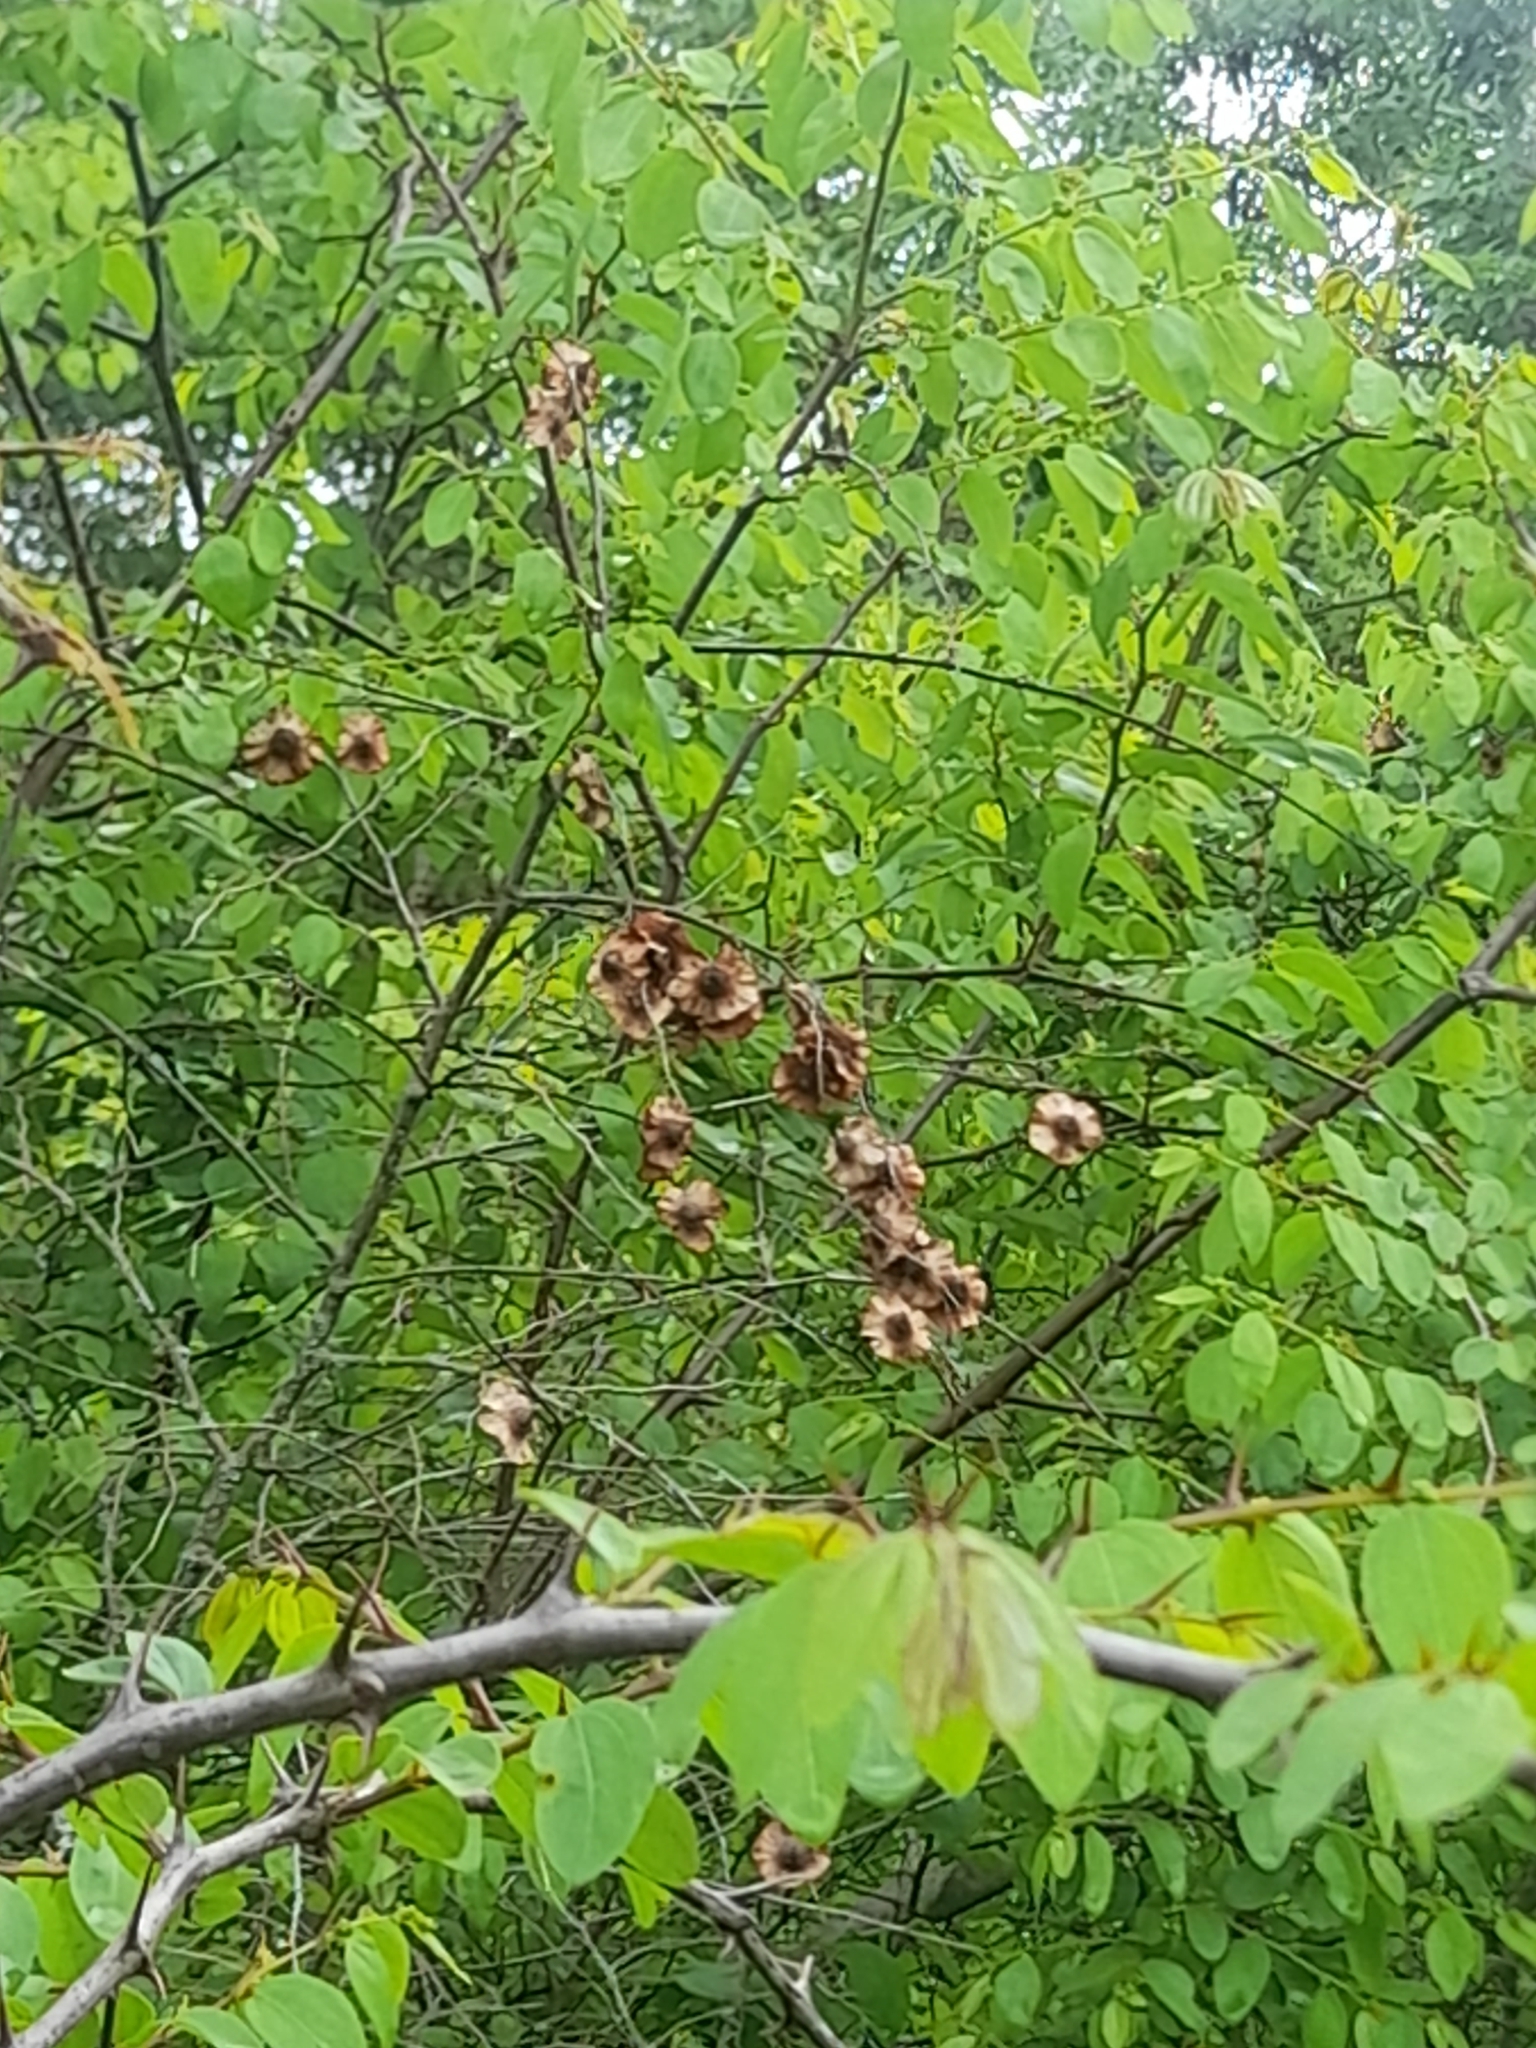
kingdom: Plantae
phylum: Tracheophyta
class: Magnoliopsida
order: Rosales
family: Rhamnaceae
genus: Paliurus
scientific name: Paliurus spina-christi
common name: Jeruselem thorn
